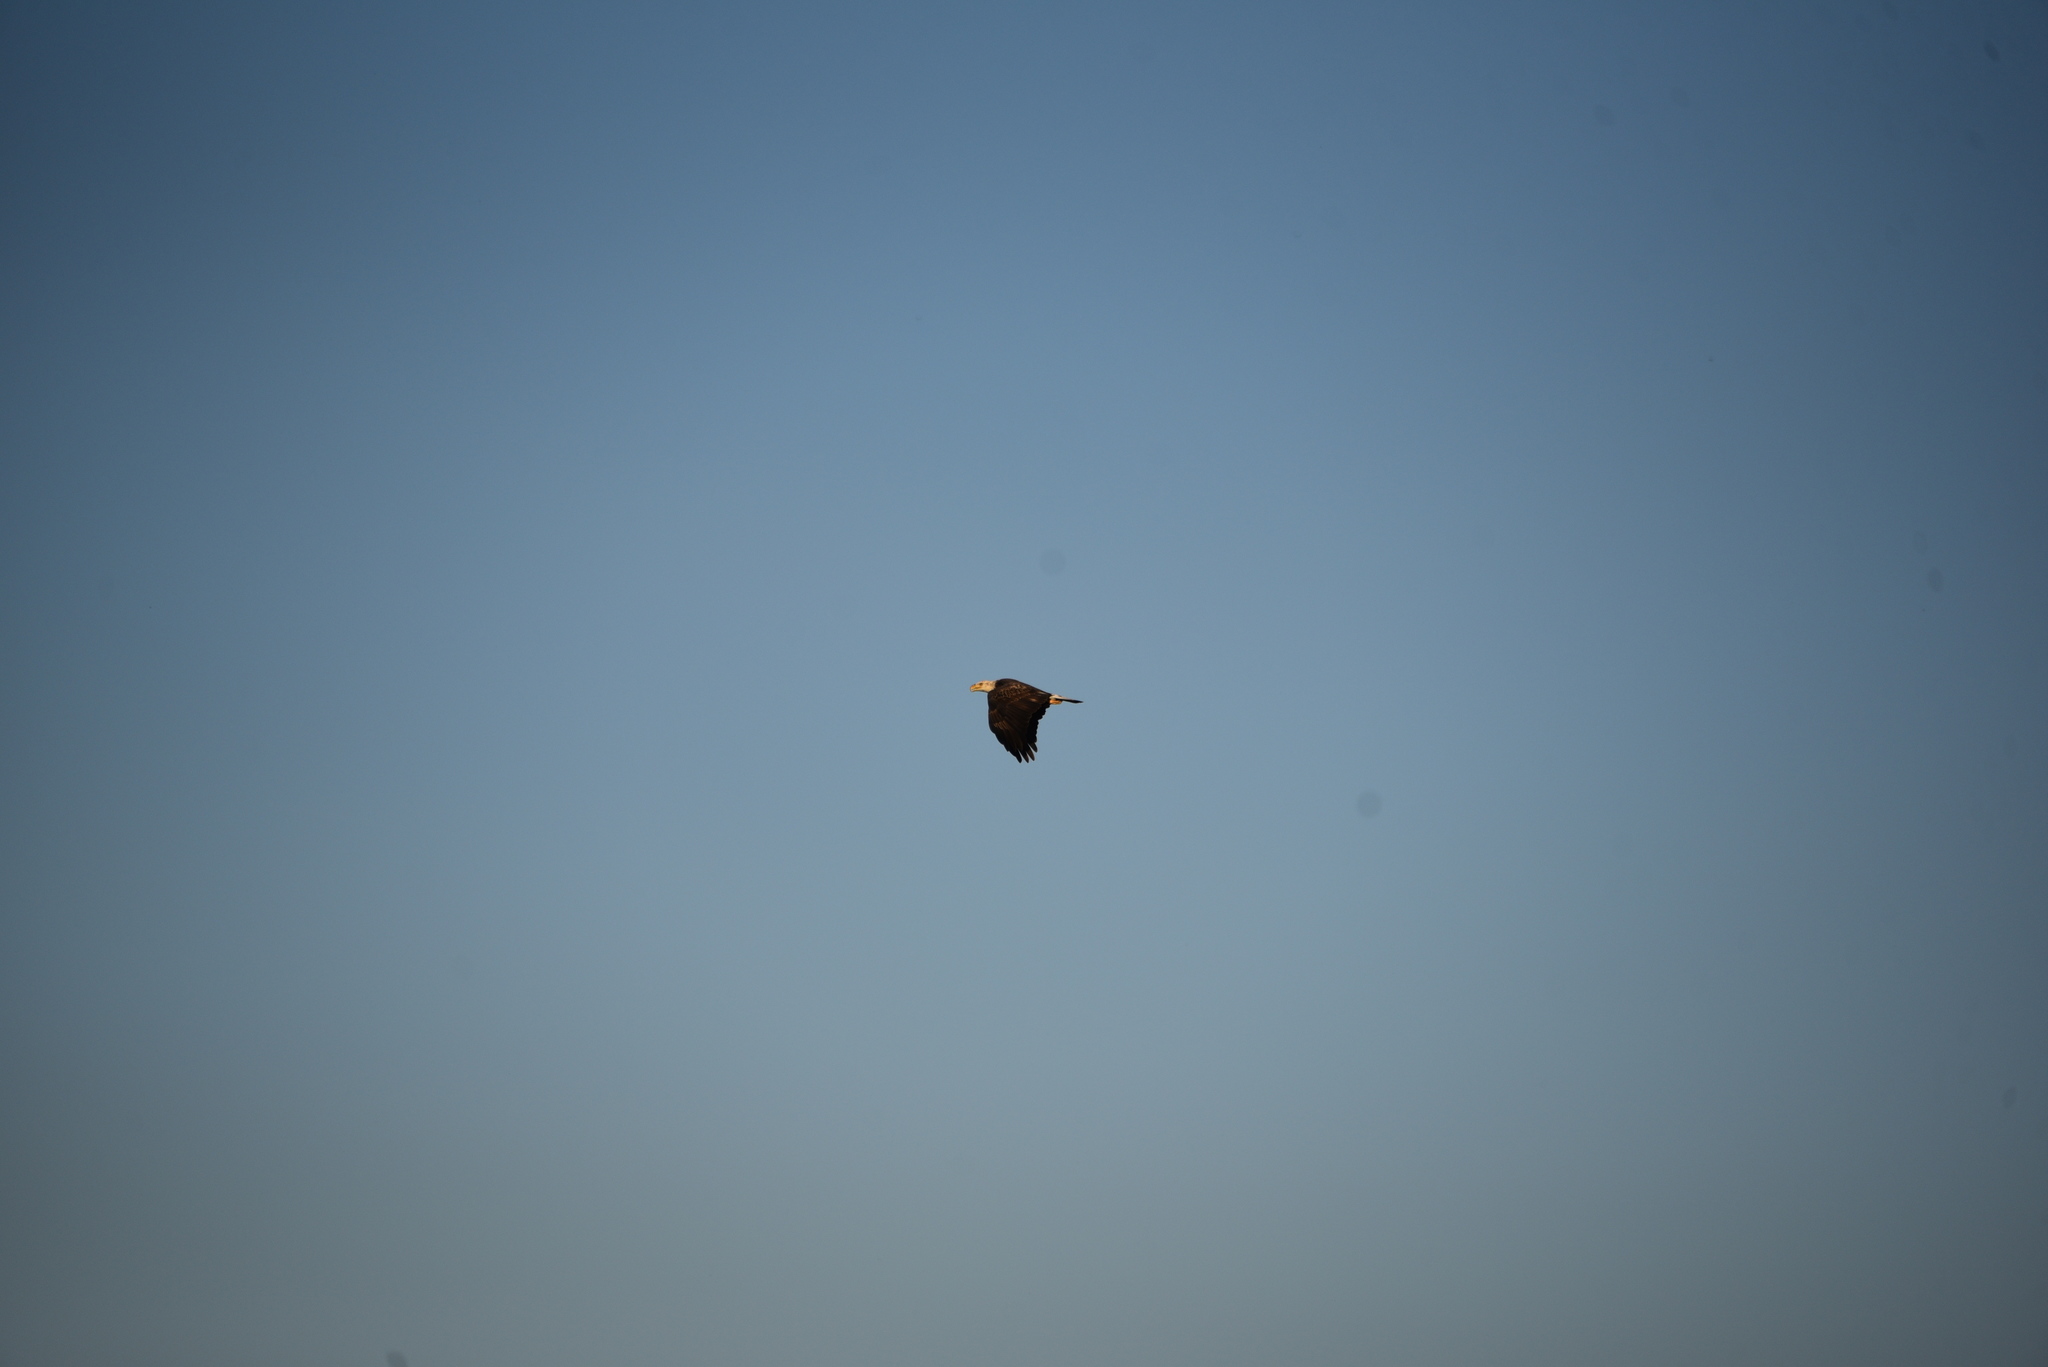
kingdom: Animalia
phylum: Chordata
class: Aves
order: Accipitriformes
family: Accipitridae
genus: Haliaeetus
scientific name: Haliaeetus leucocephalus
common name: Bald eagle
